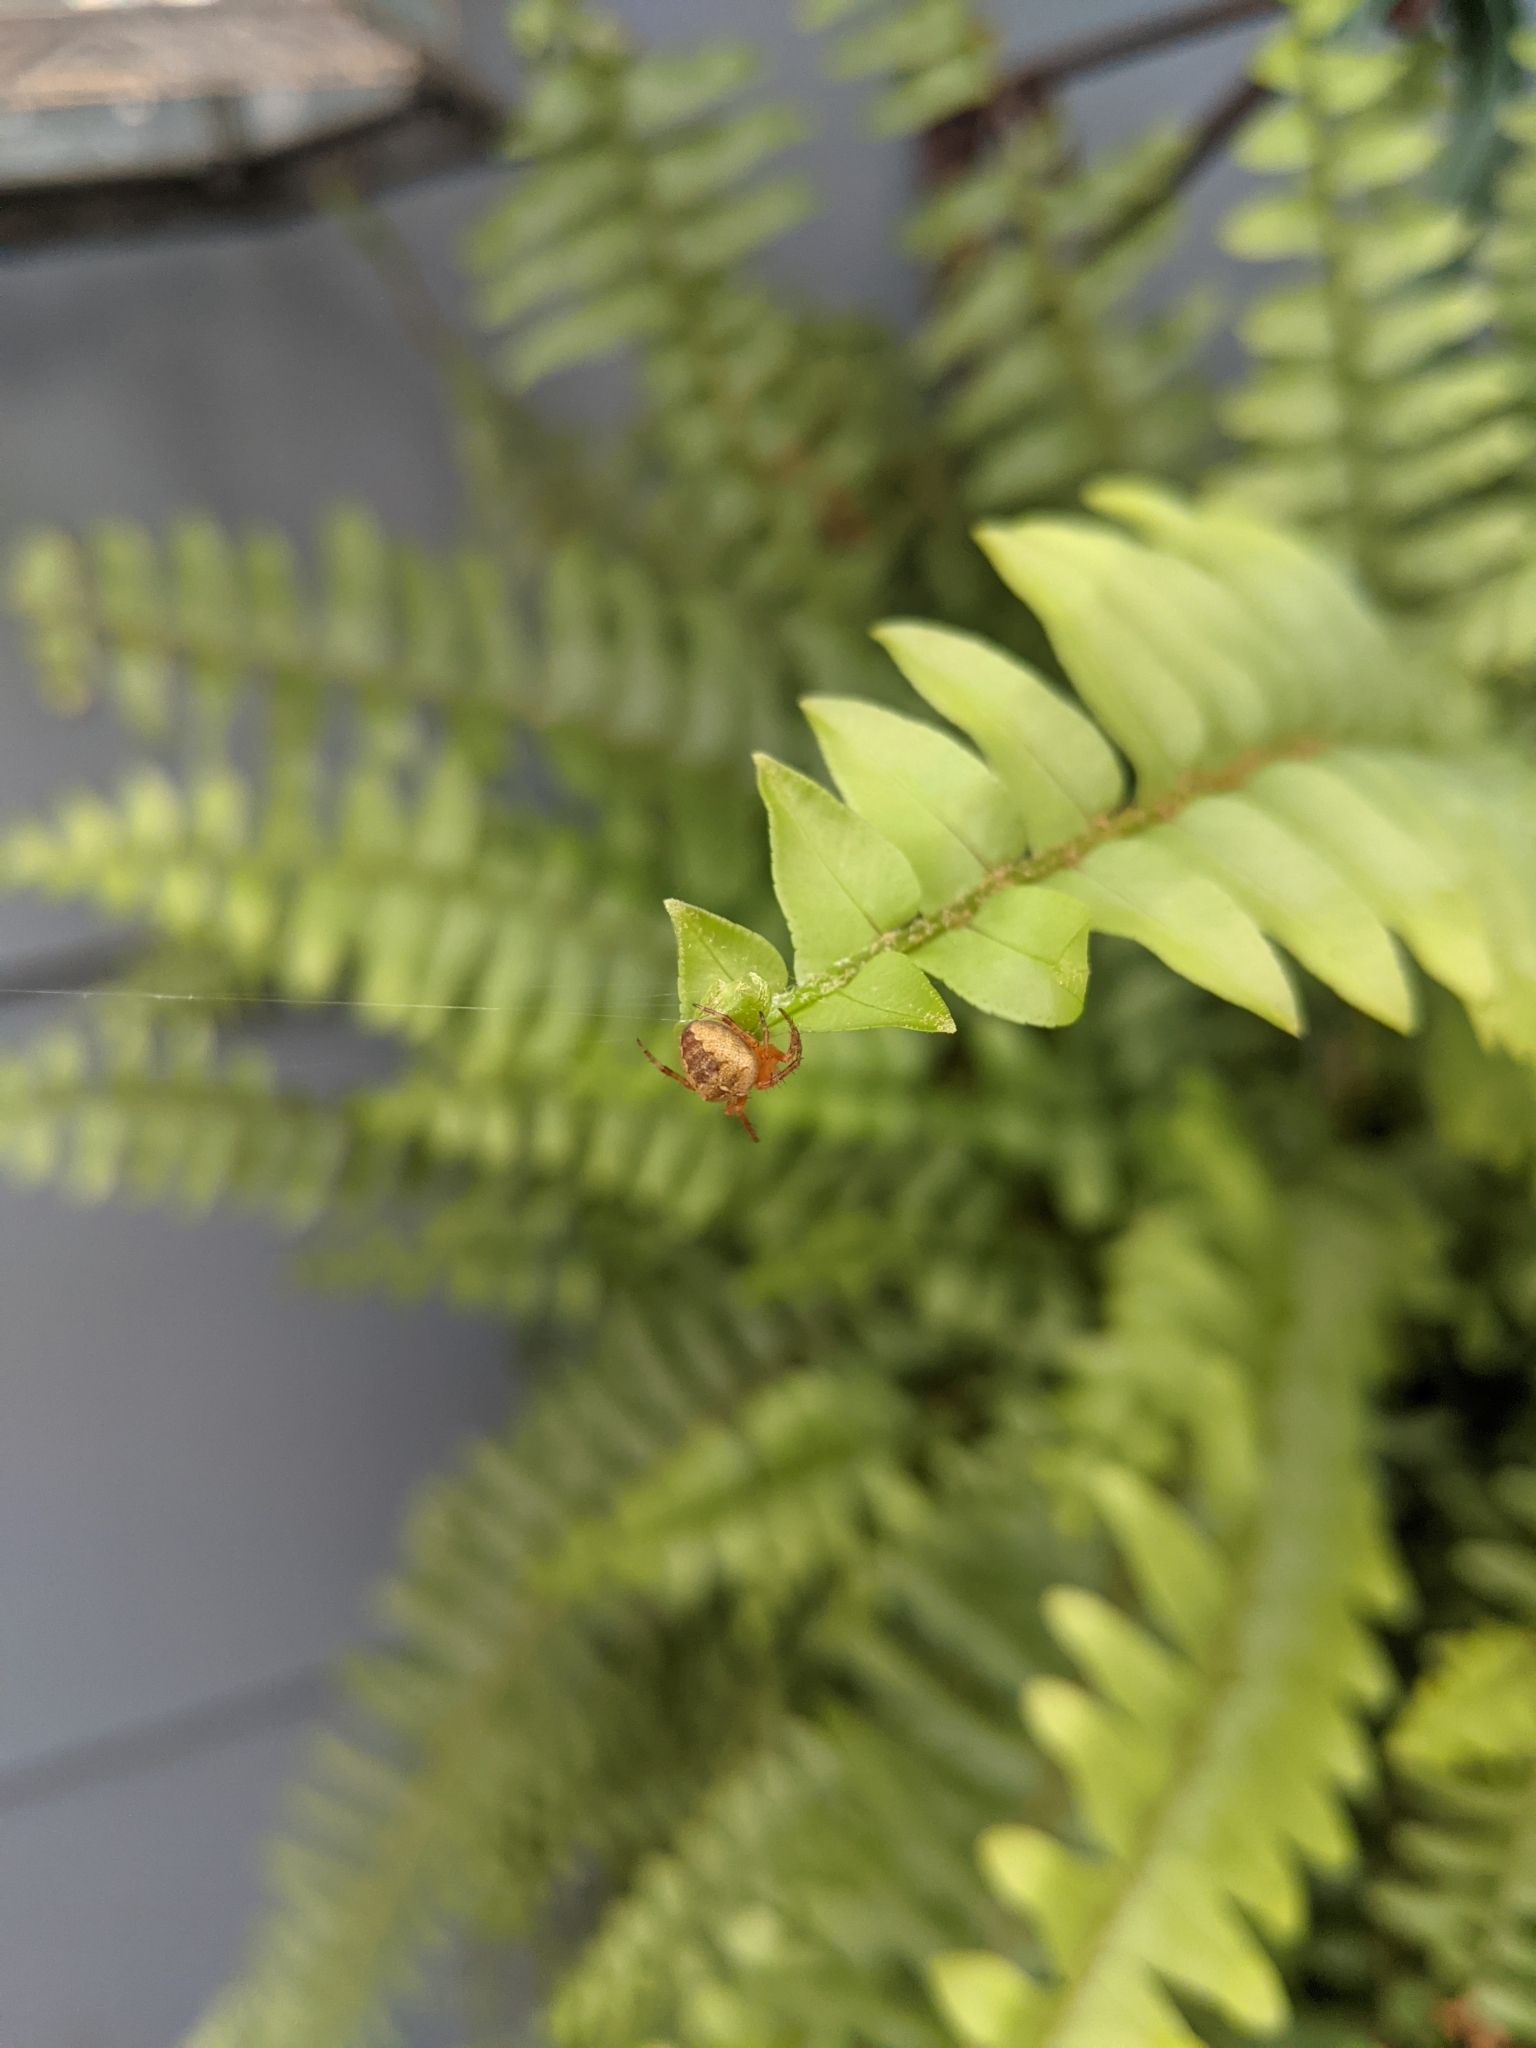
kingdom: Animalia
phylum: Arthropoda
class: Arachnida
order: Araneae
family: Araneidae
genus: Araneus
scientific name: Araneus diadematus
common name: Cross orbweaver
